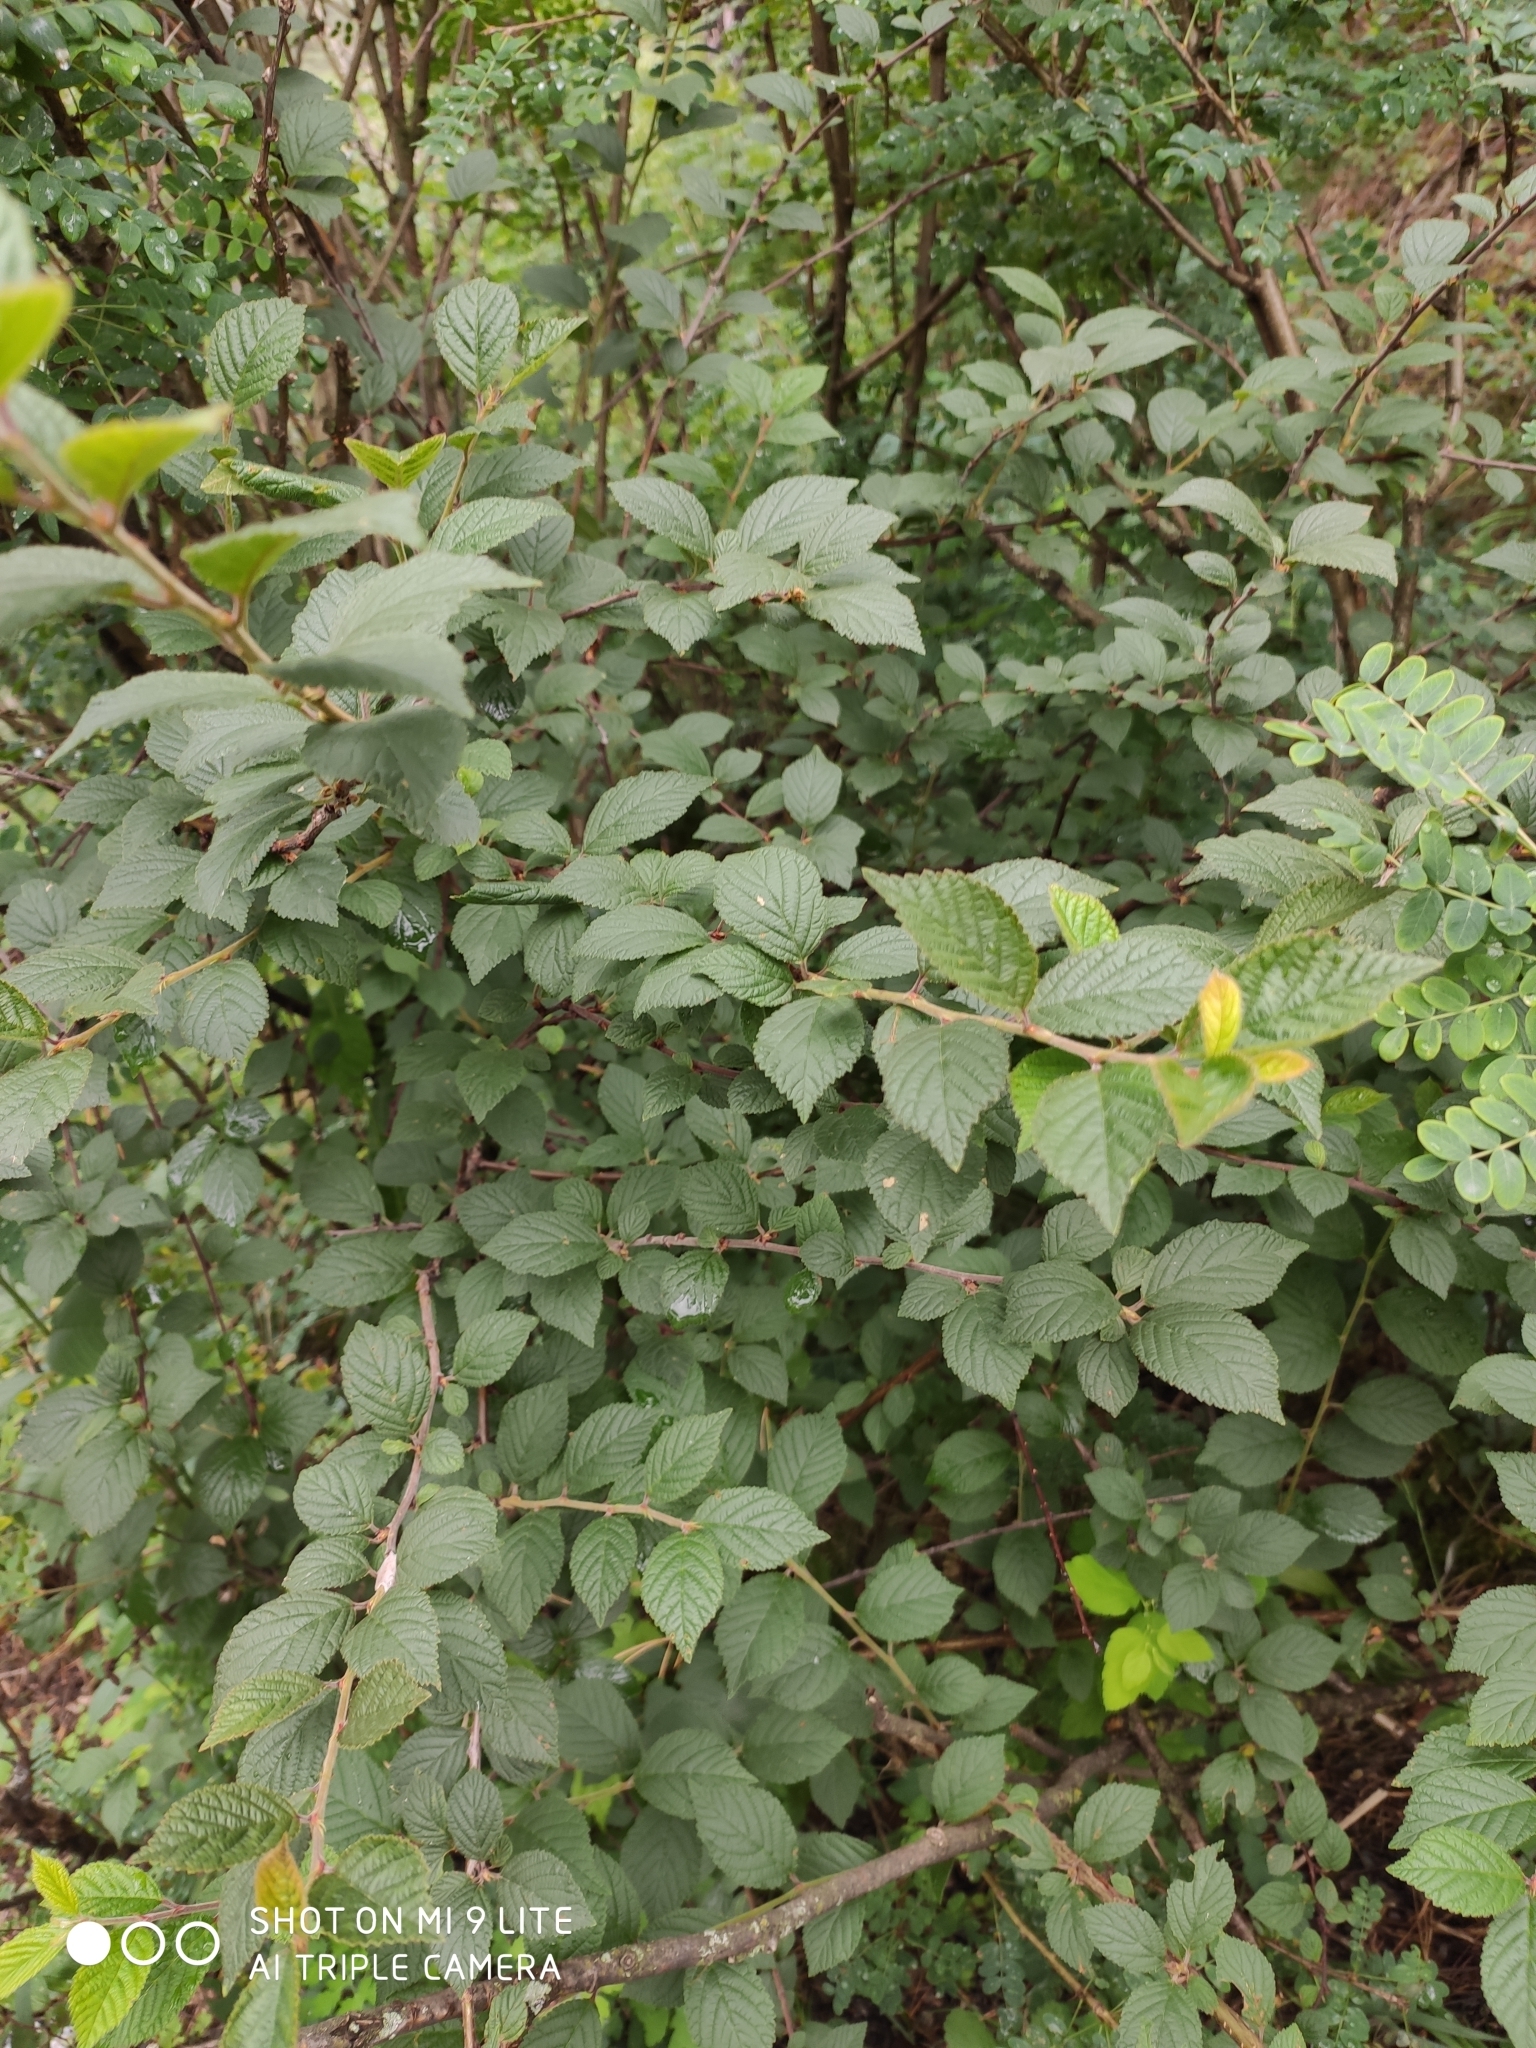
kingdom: Plantae
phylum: Tracheophyta
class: Magnoliopsida
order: Rosales
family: Rosaceae
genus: Prunus
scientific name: Prunus tomentosa
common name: Nanking cherry
